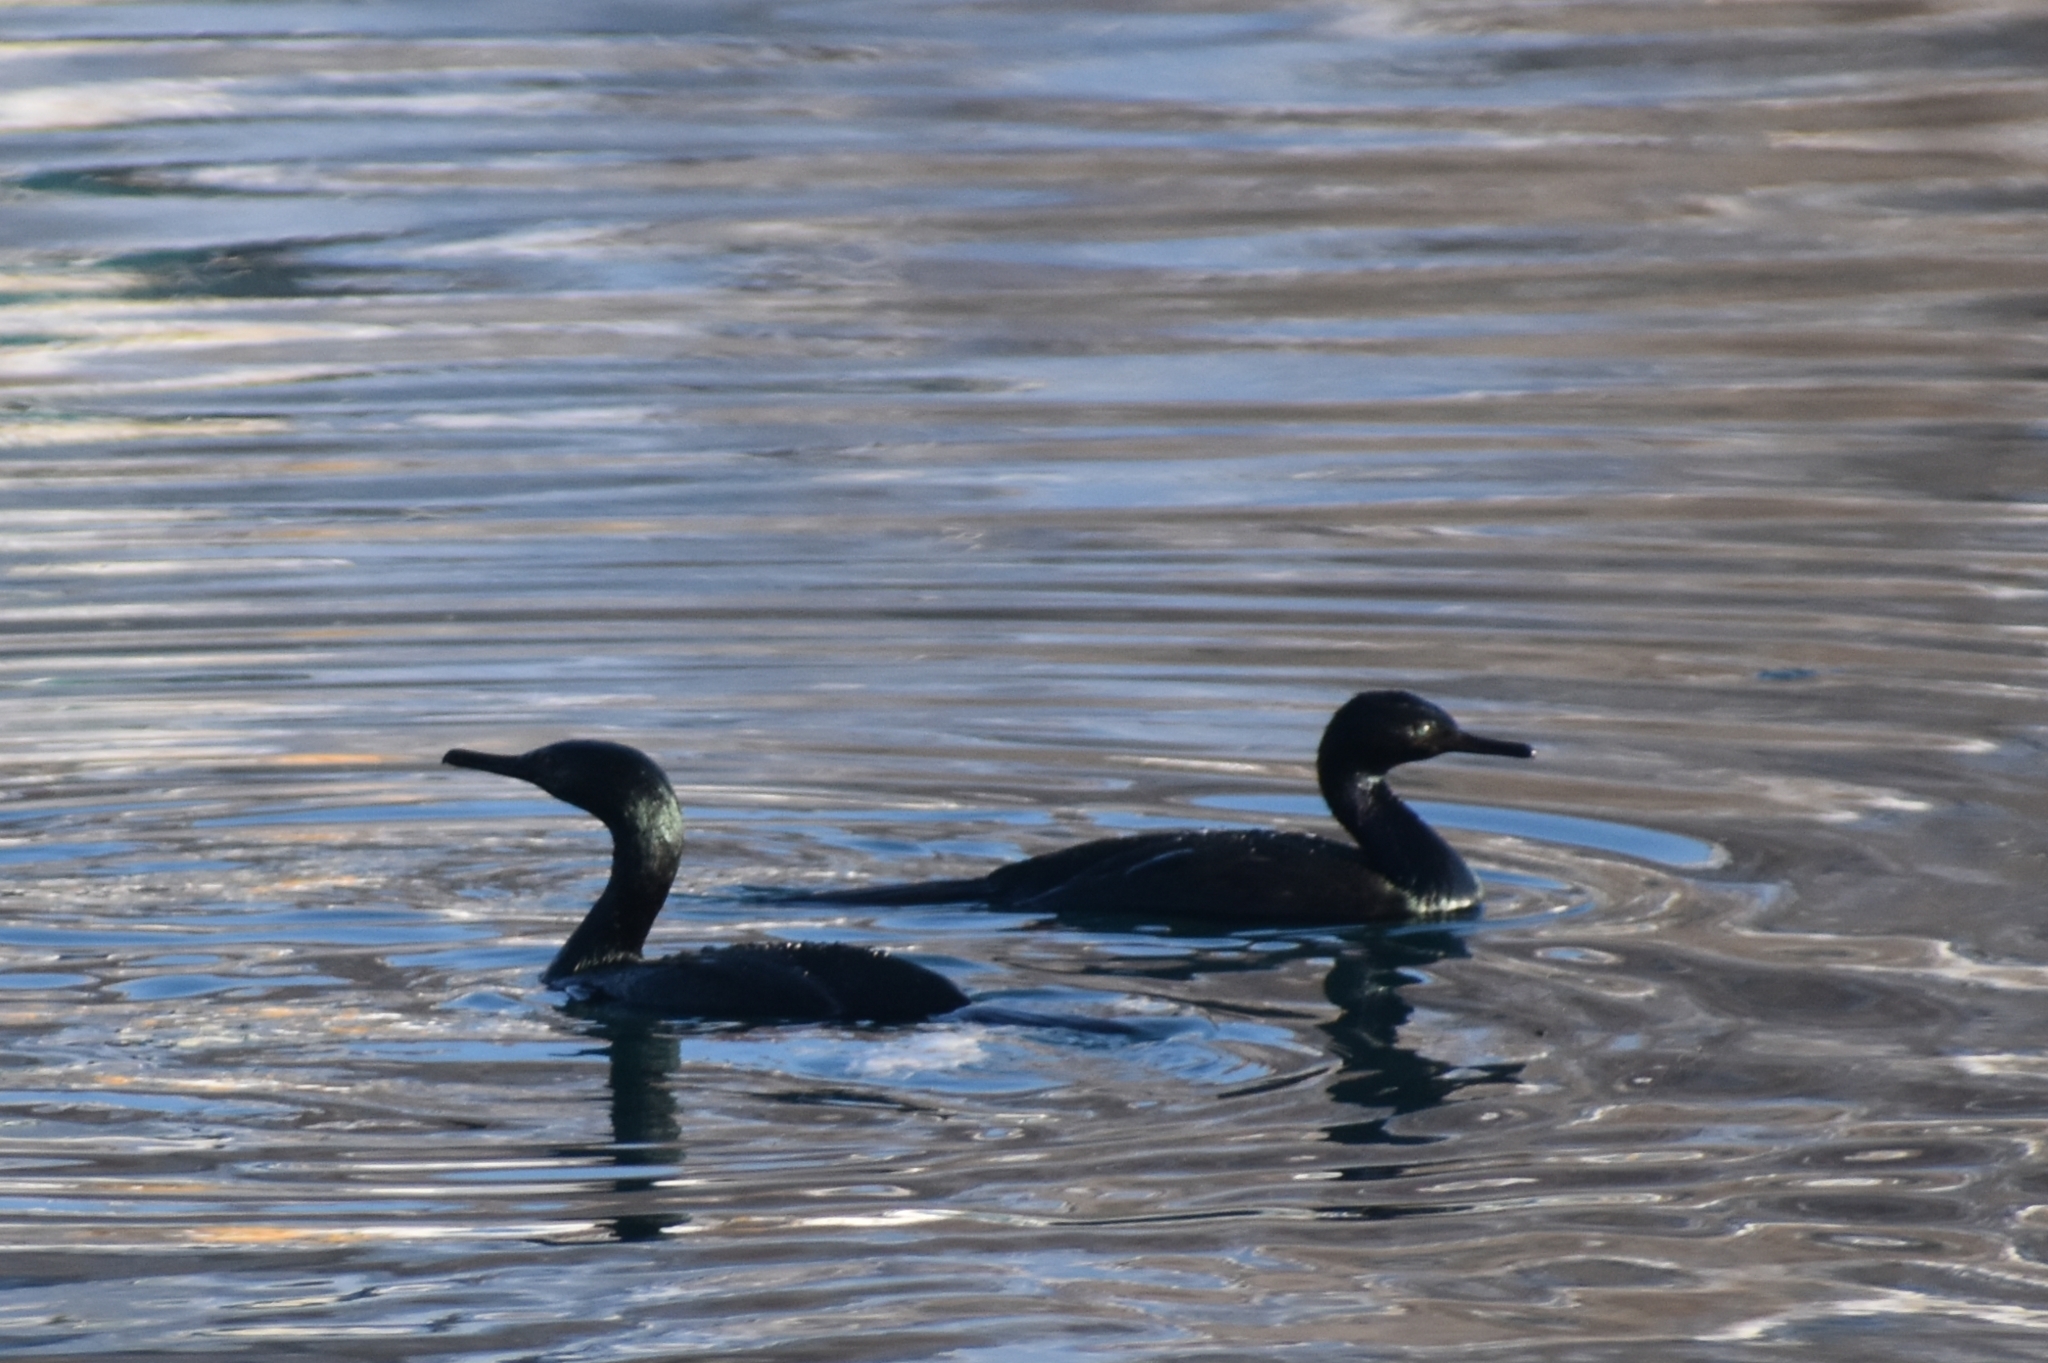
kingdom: Animalia
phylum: Chordata
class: Aves
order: Suliformes
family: Phalacrocoracidae
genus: Phalacrocorax
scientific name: Phalacrocorax pelagicus
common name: Pelagic cormorant
